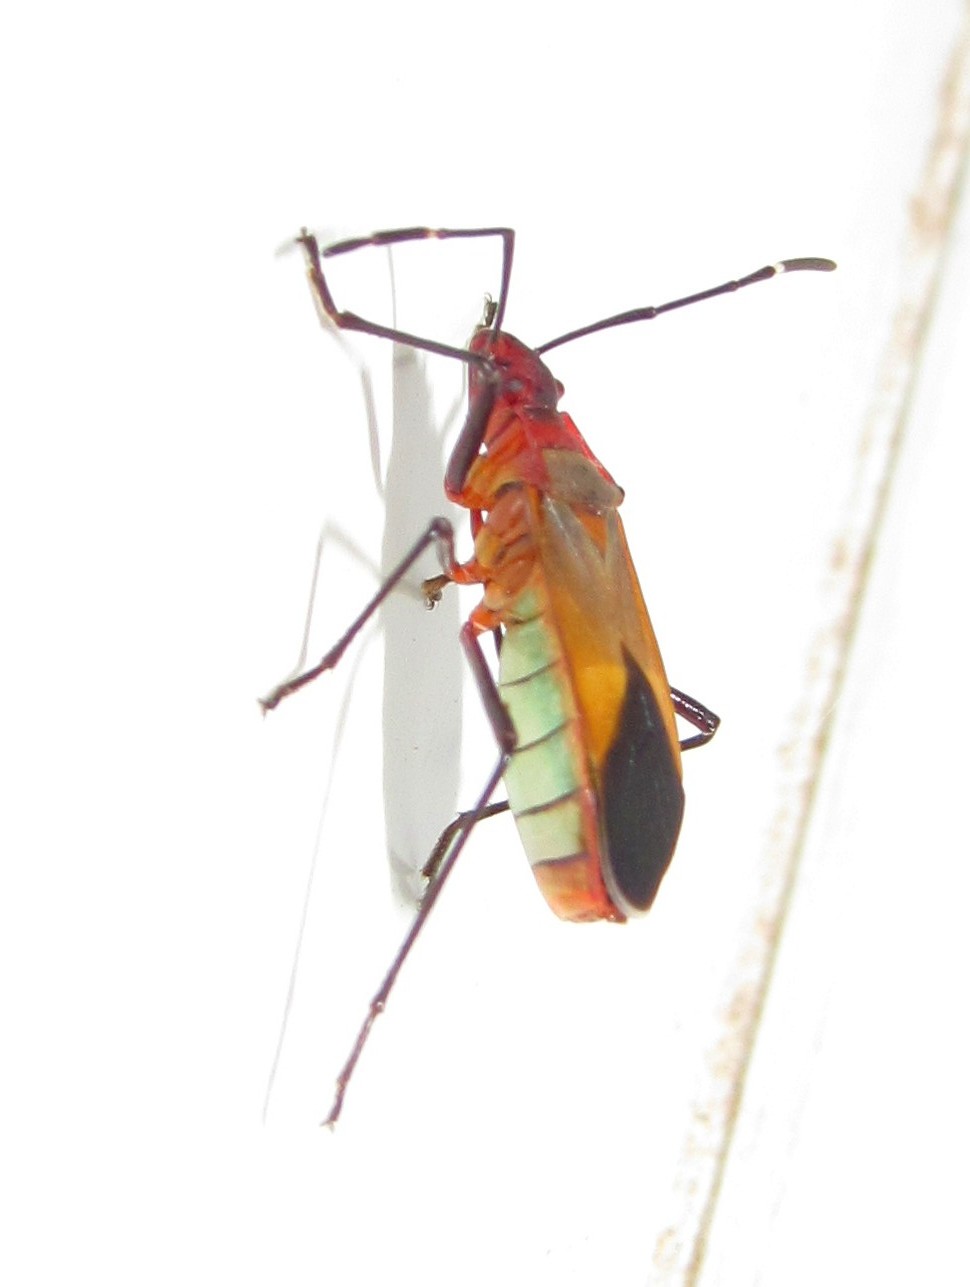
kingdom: Animalia
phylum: Arthropoda
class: Insecta
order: Hemiptera
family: Pyrrhocoridae
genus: Dysdercus
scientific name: Dysdercus ruficollis
